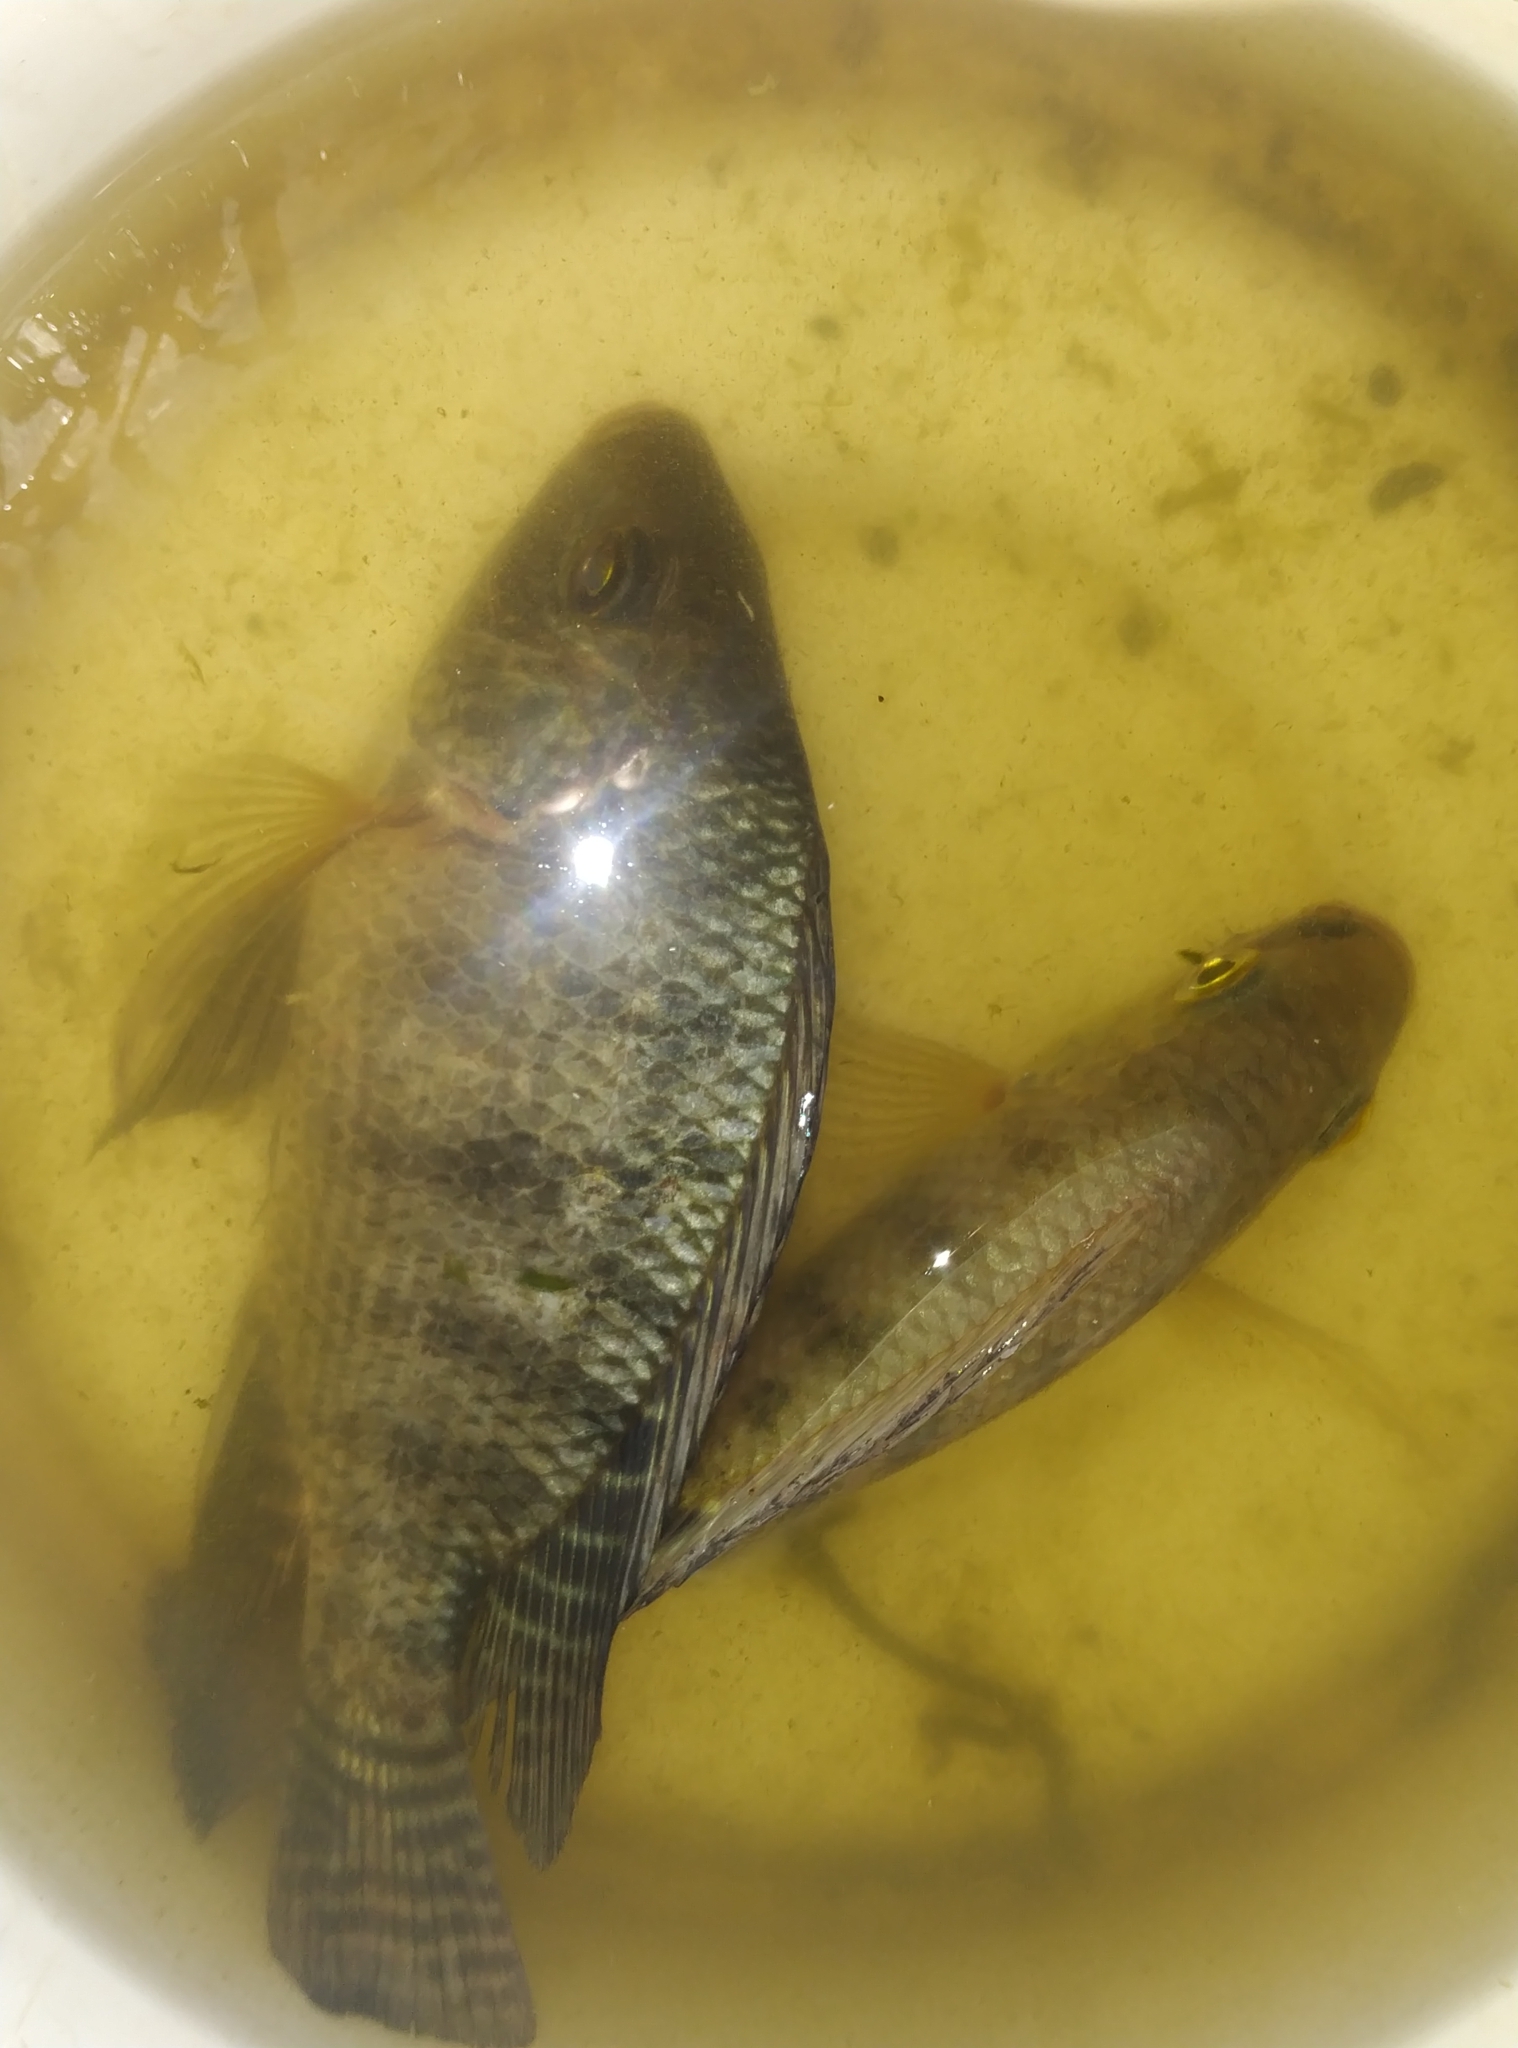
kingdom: Animalia
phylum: Chordata
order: Perciformes
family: Cichlidae
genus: Oreochromis
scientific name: Oreochromis niloticus
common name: Nile tilapia
